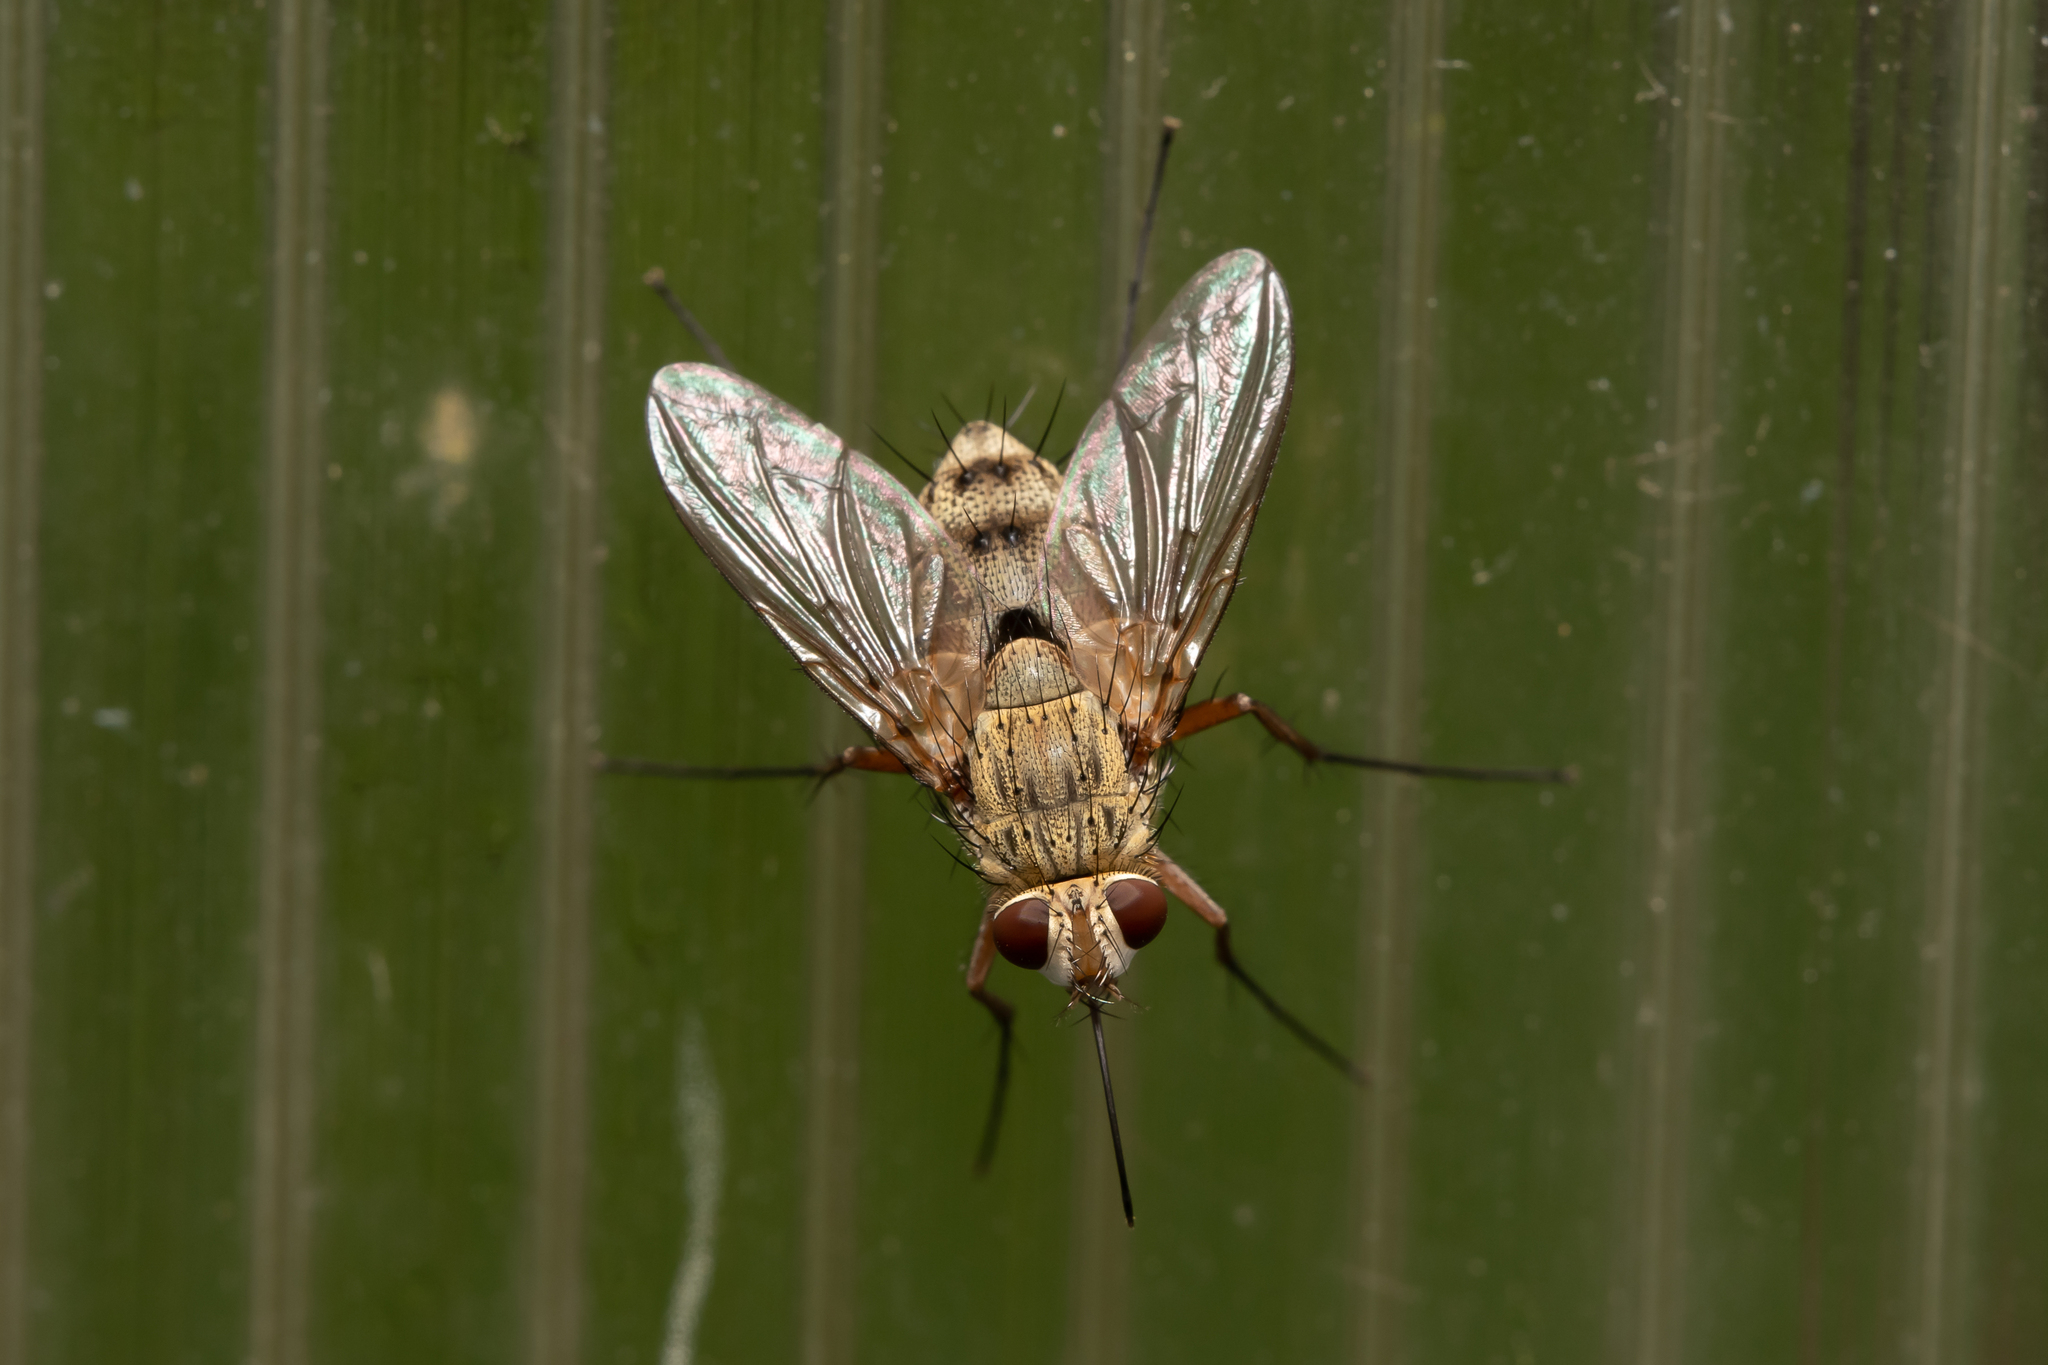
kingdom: Animalia
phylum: Arthropoda
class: Insecta
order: Diptera
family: Tachinidae
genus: Prosena
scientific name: Prosena siberita
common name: Parasitic fly
